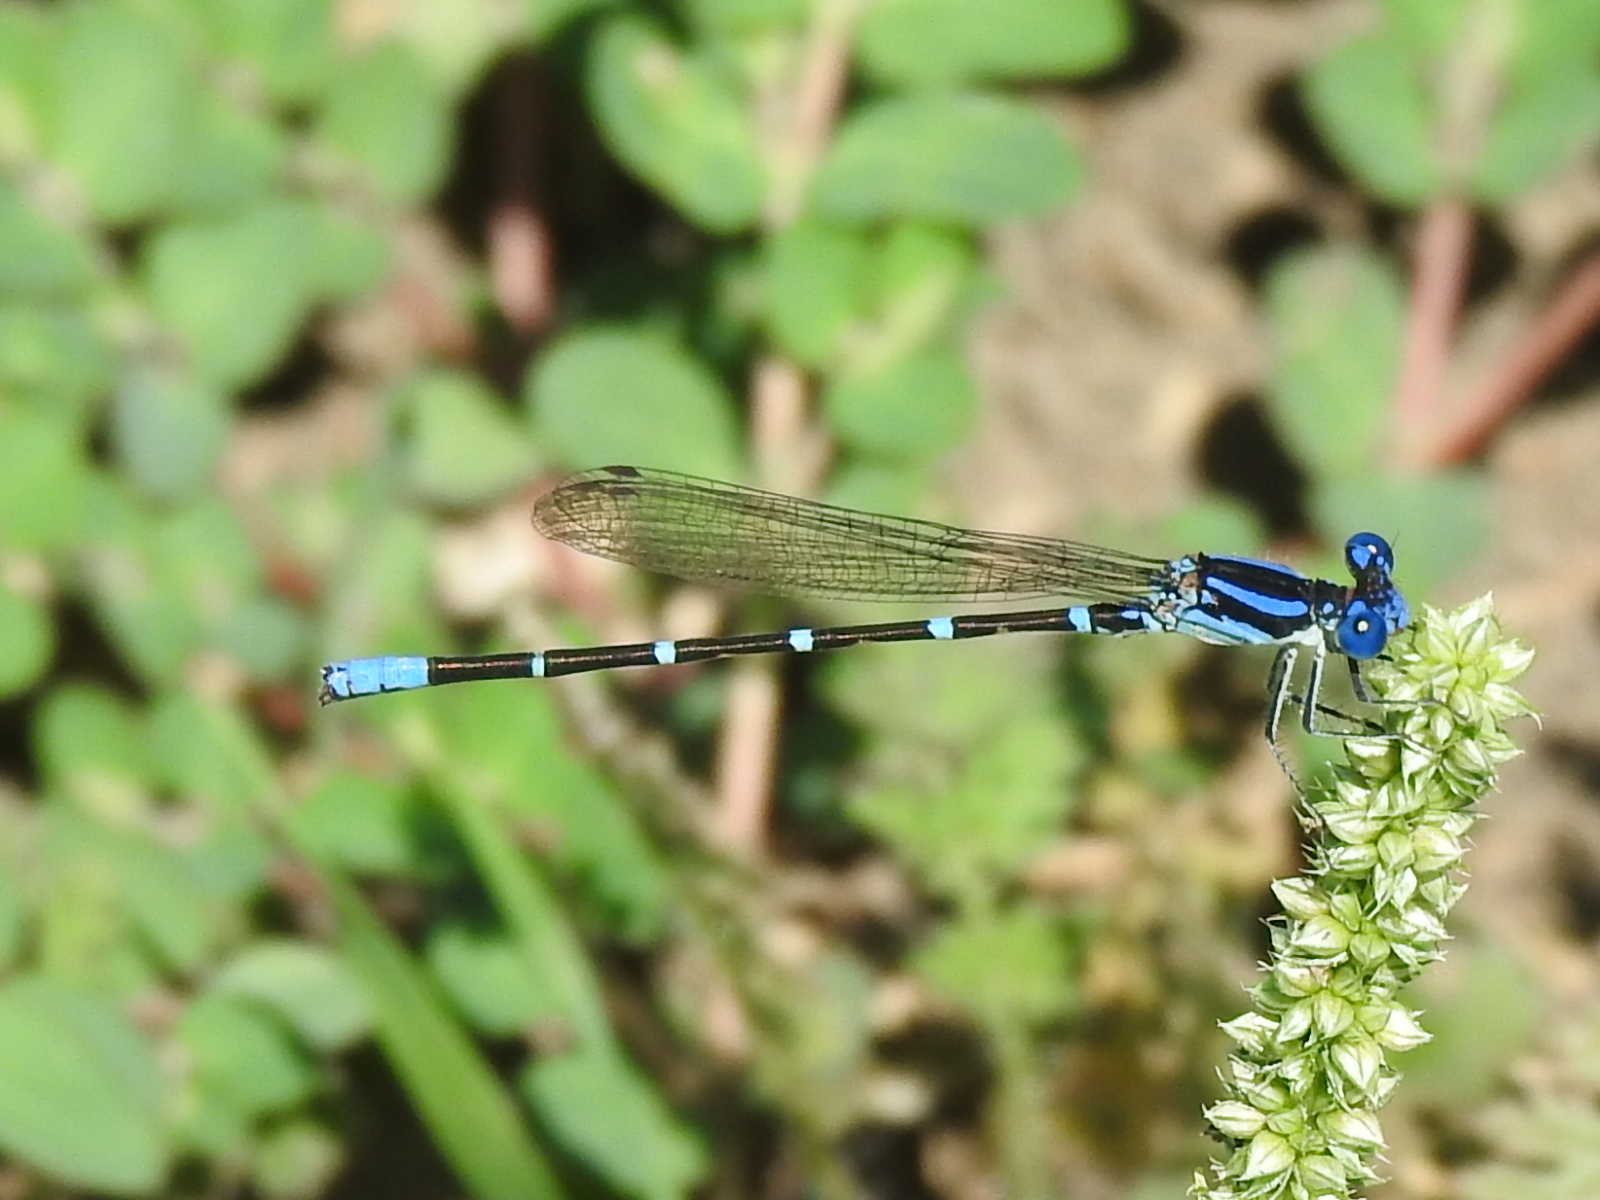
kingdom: Animalia
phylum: Arthropoda
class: Insecta
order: Odonata
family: Coenagrionidae
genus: Argia
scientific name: Argia sedula
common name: Blue-ringed dancer
